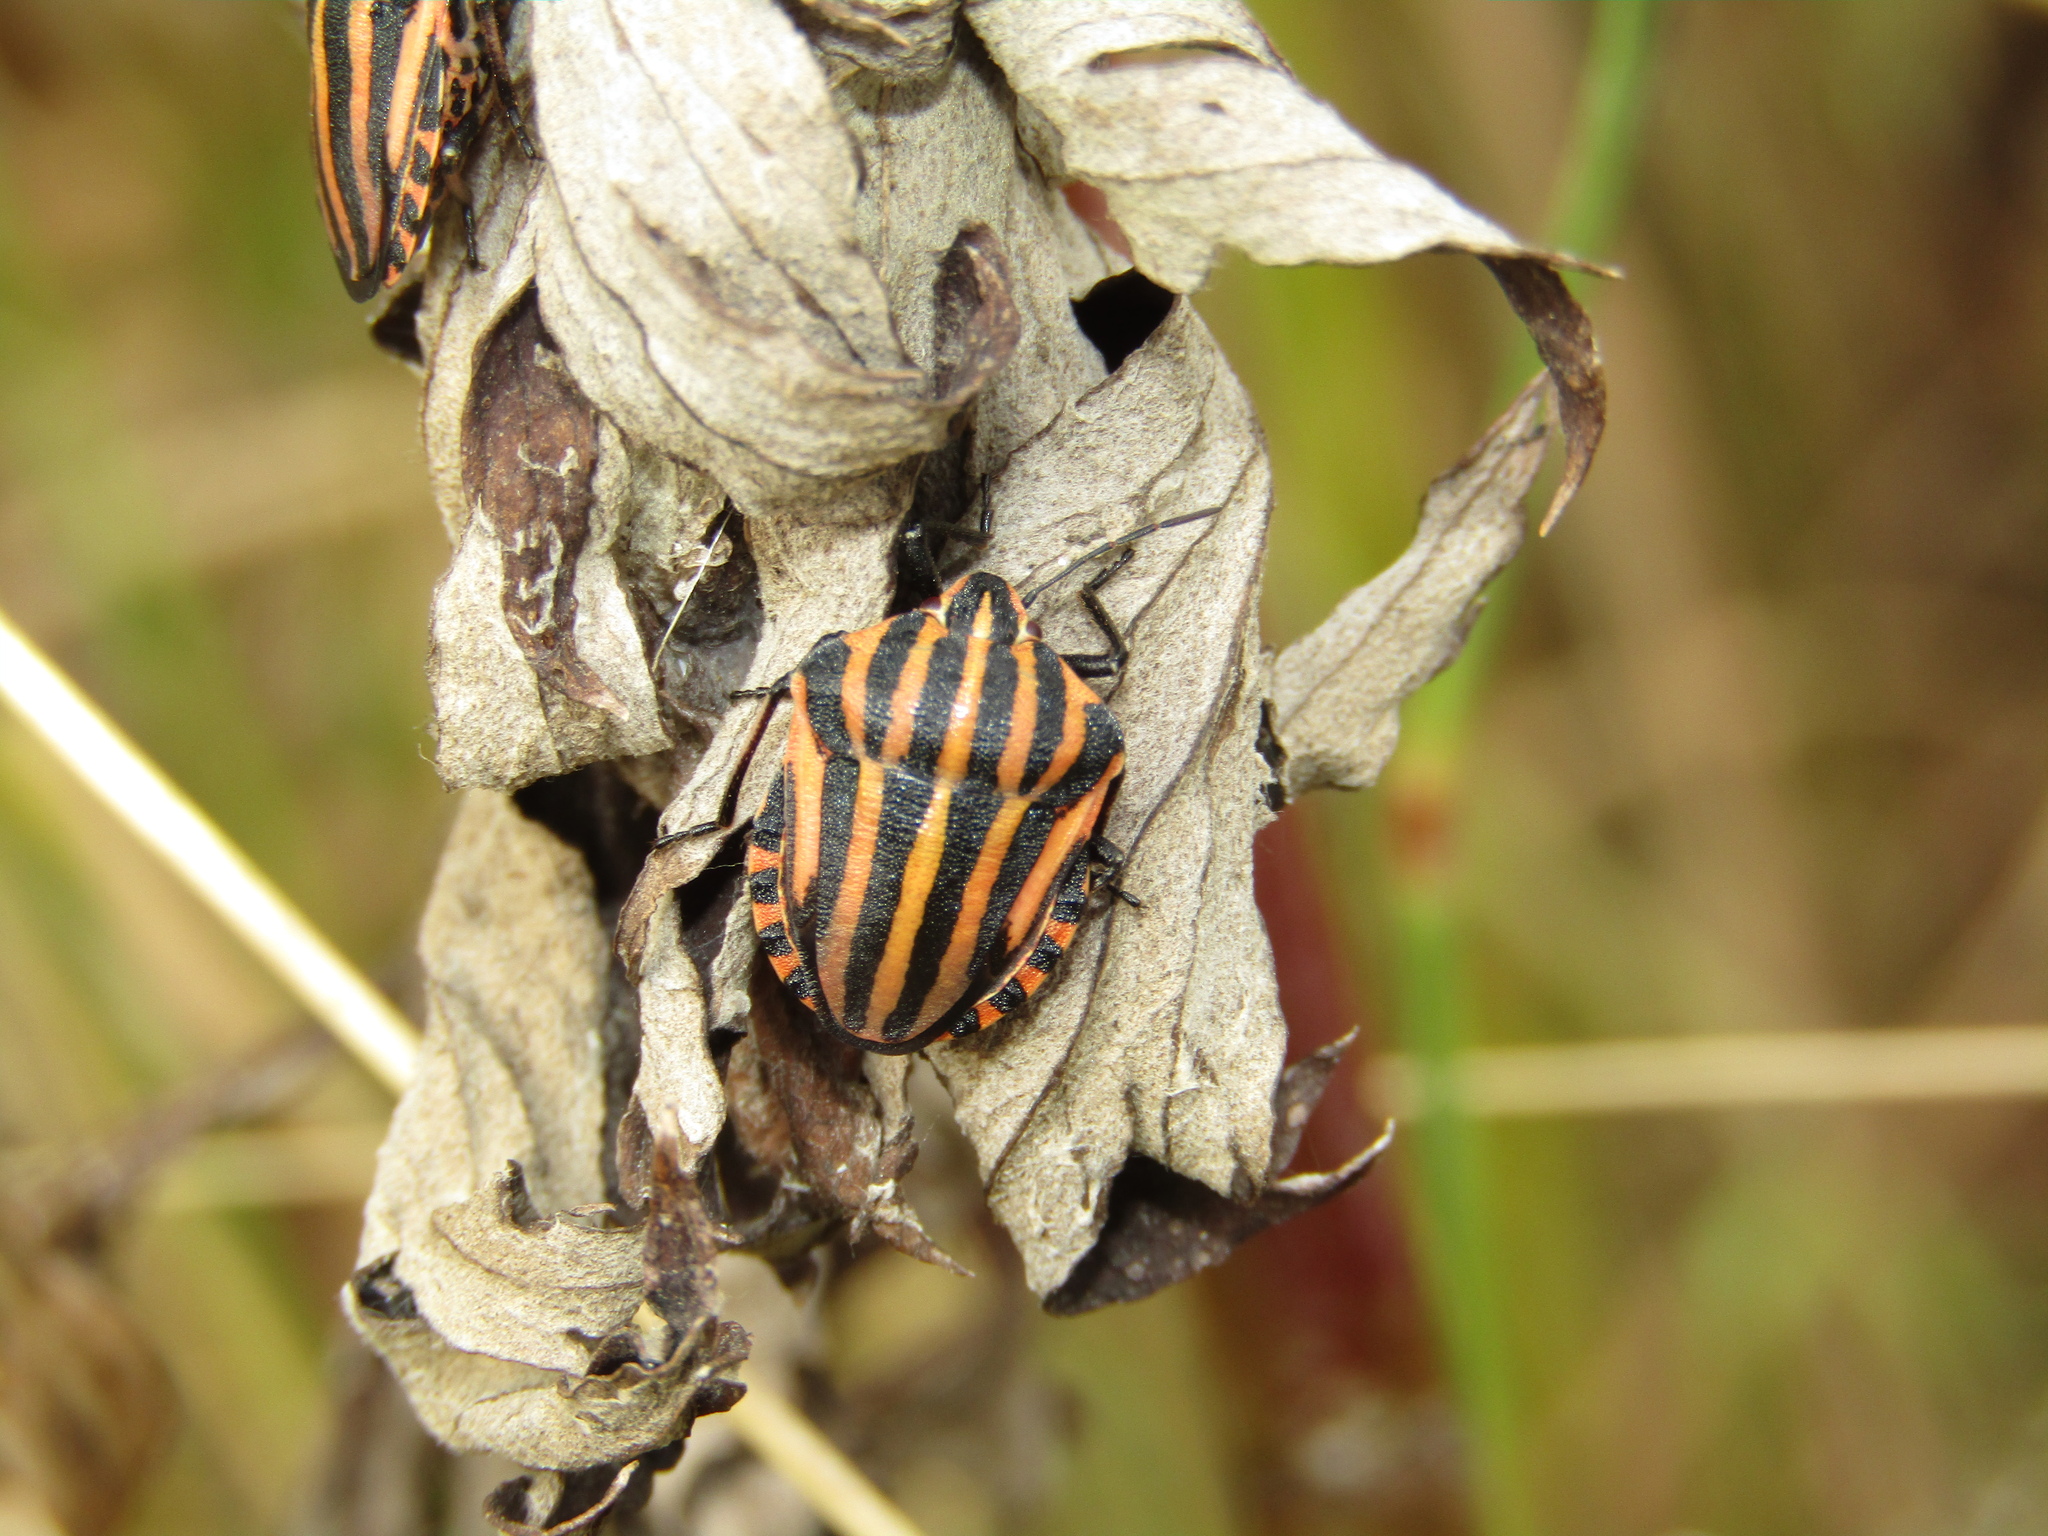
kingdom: Animalia
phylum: Arthropoda
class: Insecta
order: Hemiptera
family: Pentatomidae
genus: Graphosoma
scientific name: Graphosoma italicum
